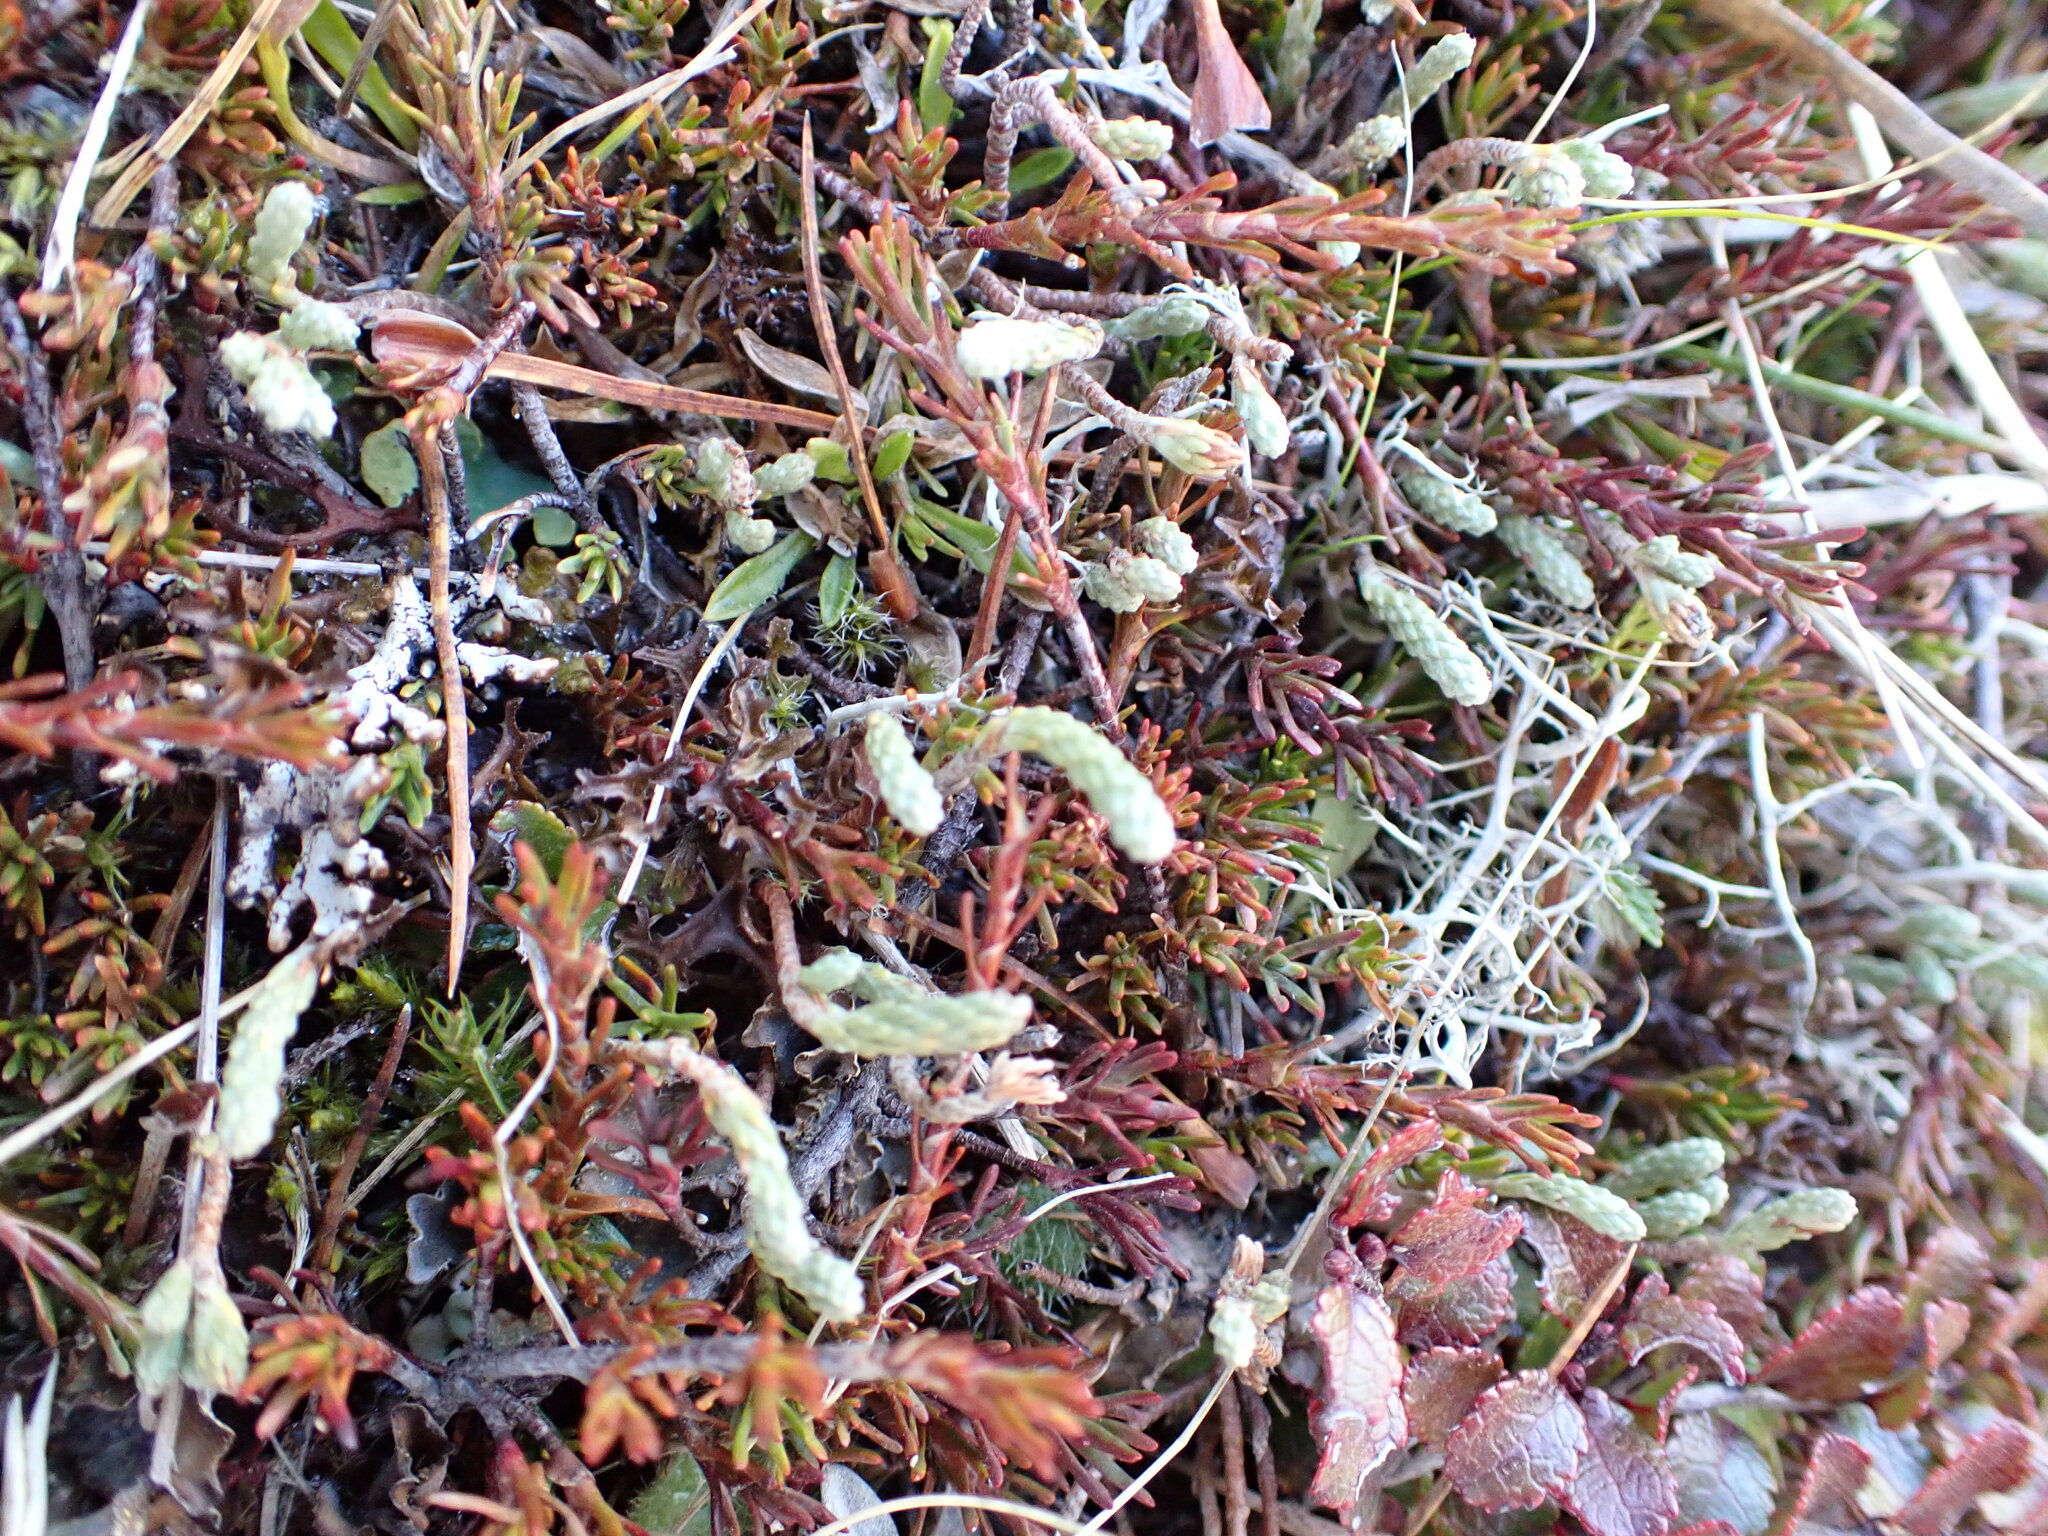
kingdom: Plantae
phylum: Tracheophyta
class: Magnoliopsida
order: Malvales
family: Thymelaeaceae
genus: Kelleria
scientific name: Kelleria dieffenbachii
